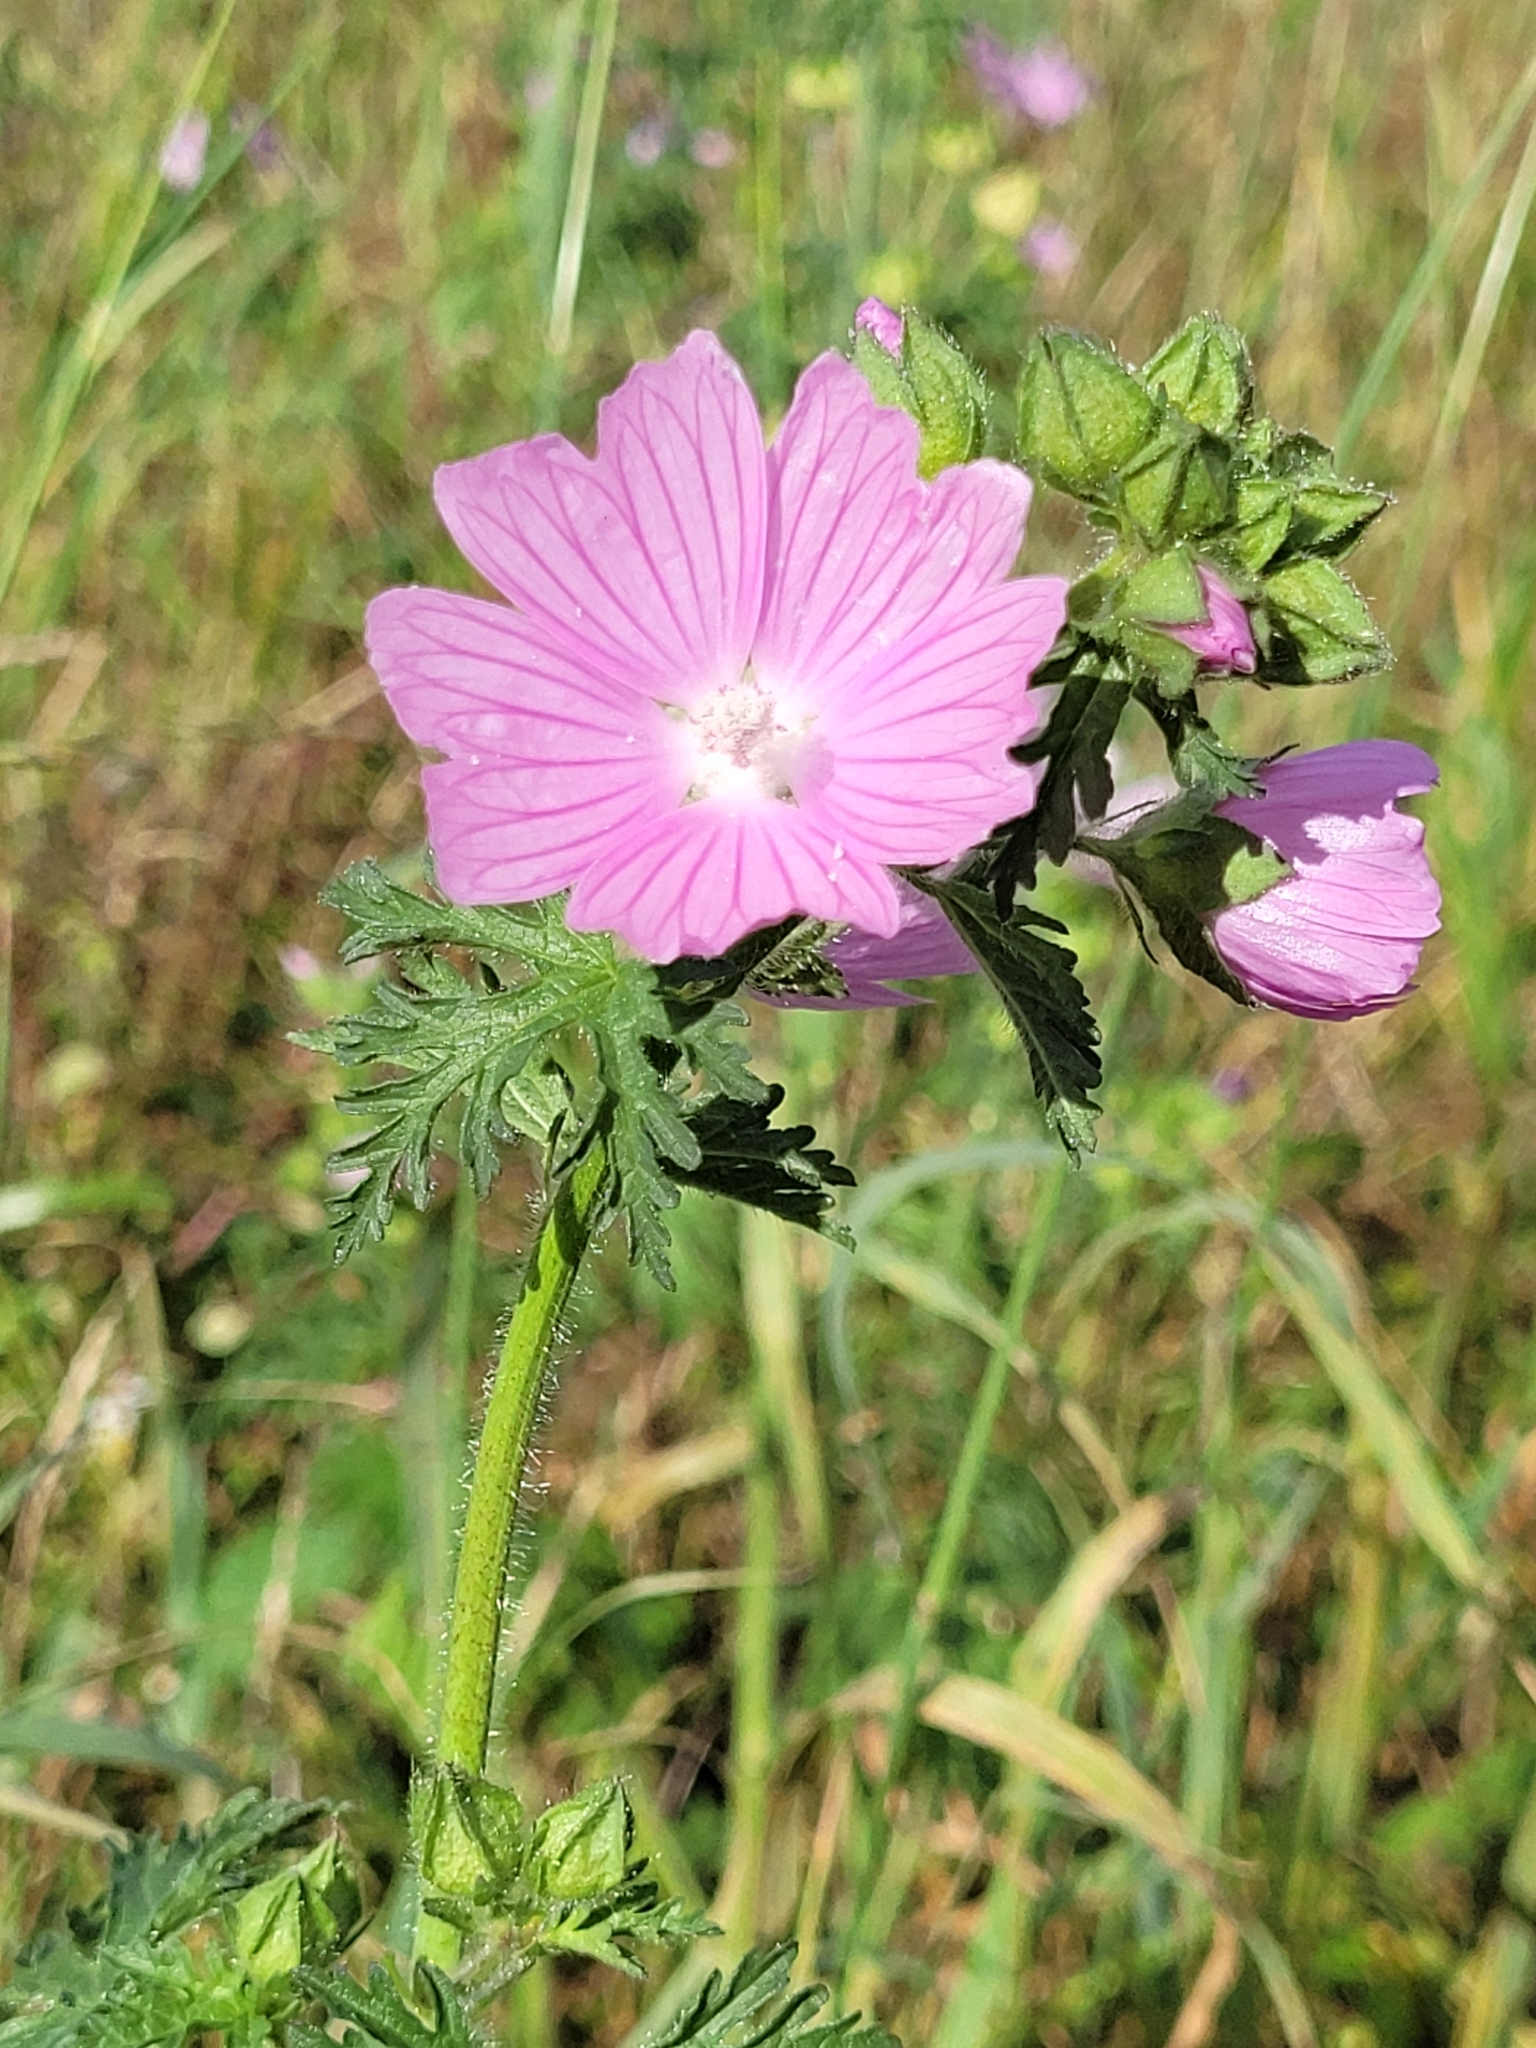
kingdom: Plantae
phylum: Tracheophyta
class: Magnoliopsida
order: Malvales
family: Malvaceae
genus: Malva
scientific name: Malva moschata
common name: Musk mallow
